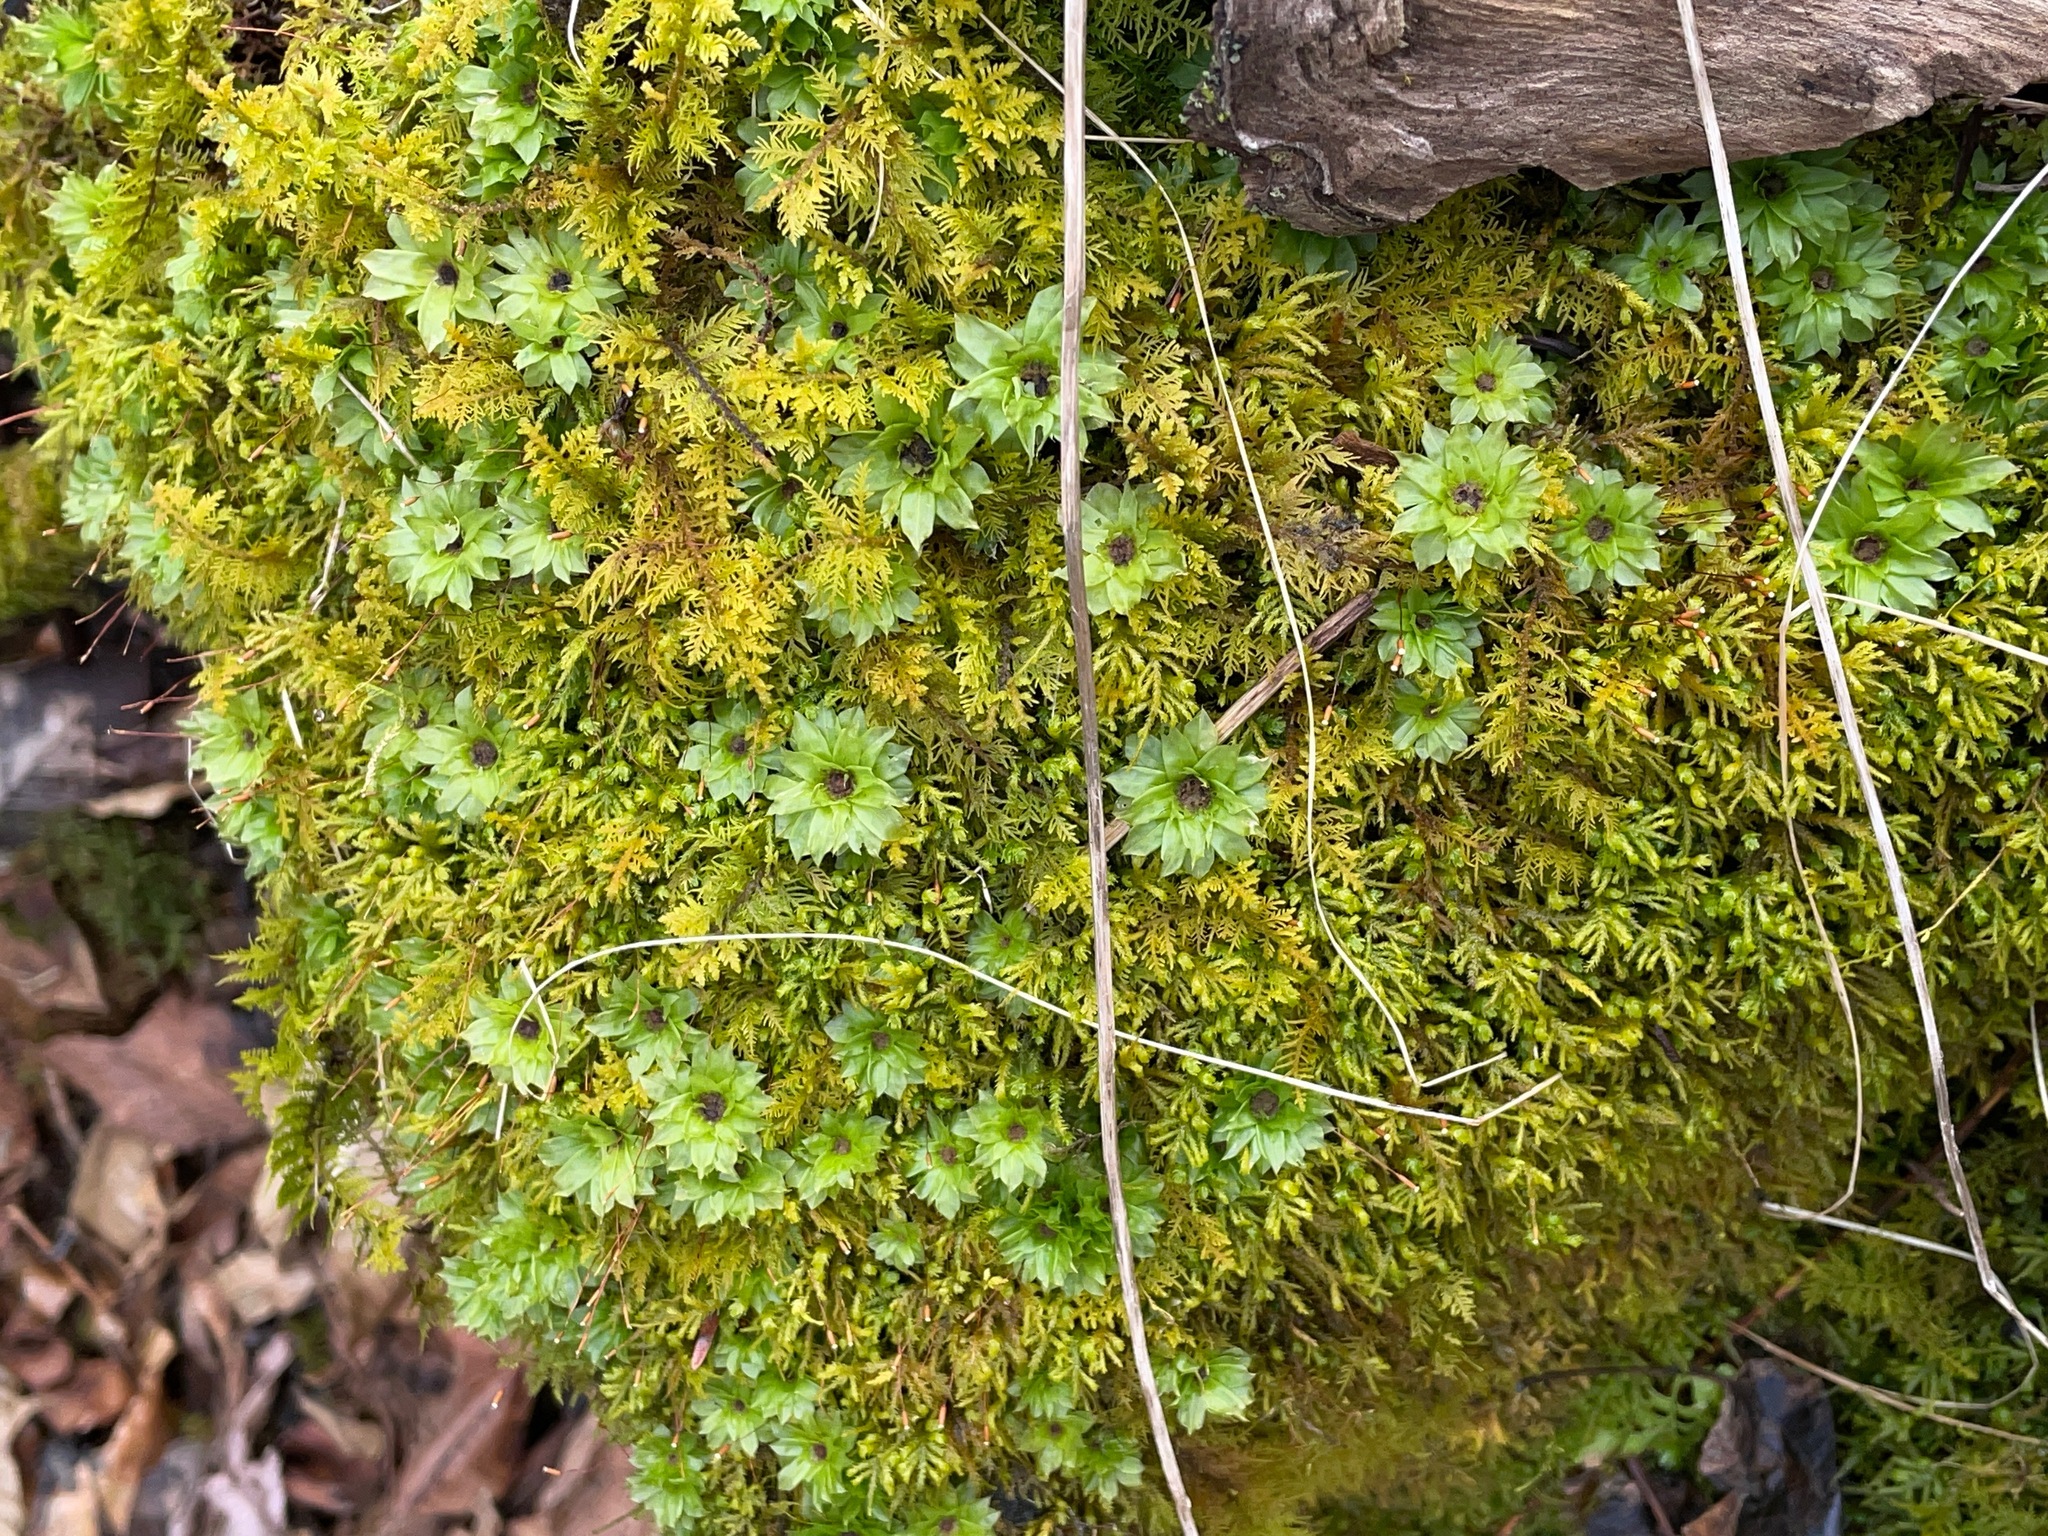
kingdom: Plantae
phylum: Bryophyta
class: Bryopsida
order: Bryales
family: Bryaceae
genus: Rhodobryum
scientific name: Rhodobryum ontariense
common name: Ontario rhodobryum moss
